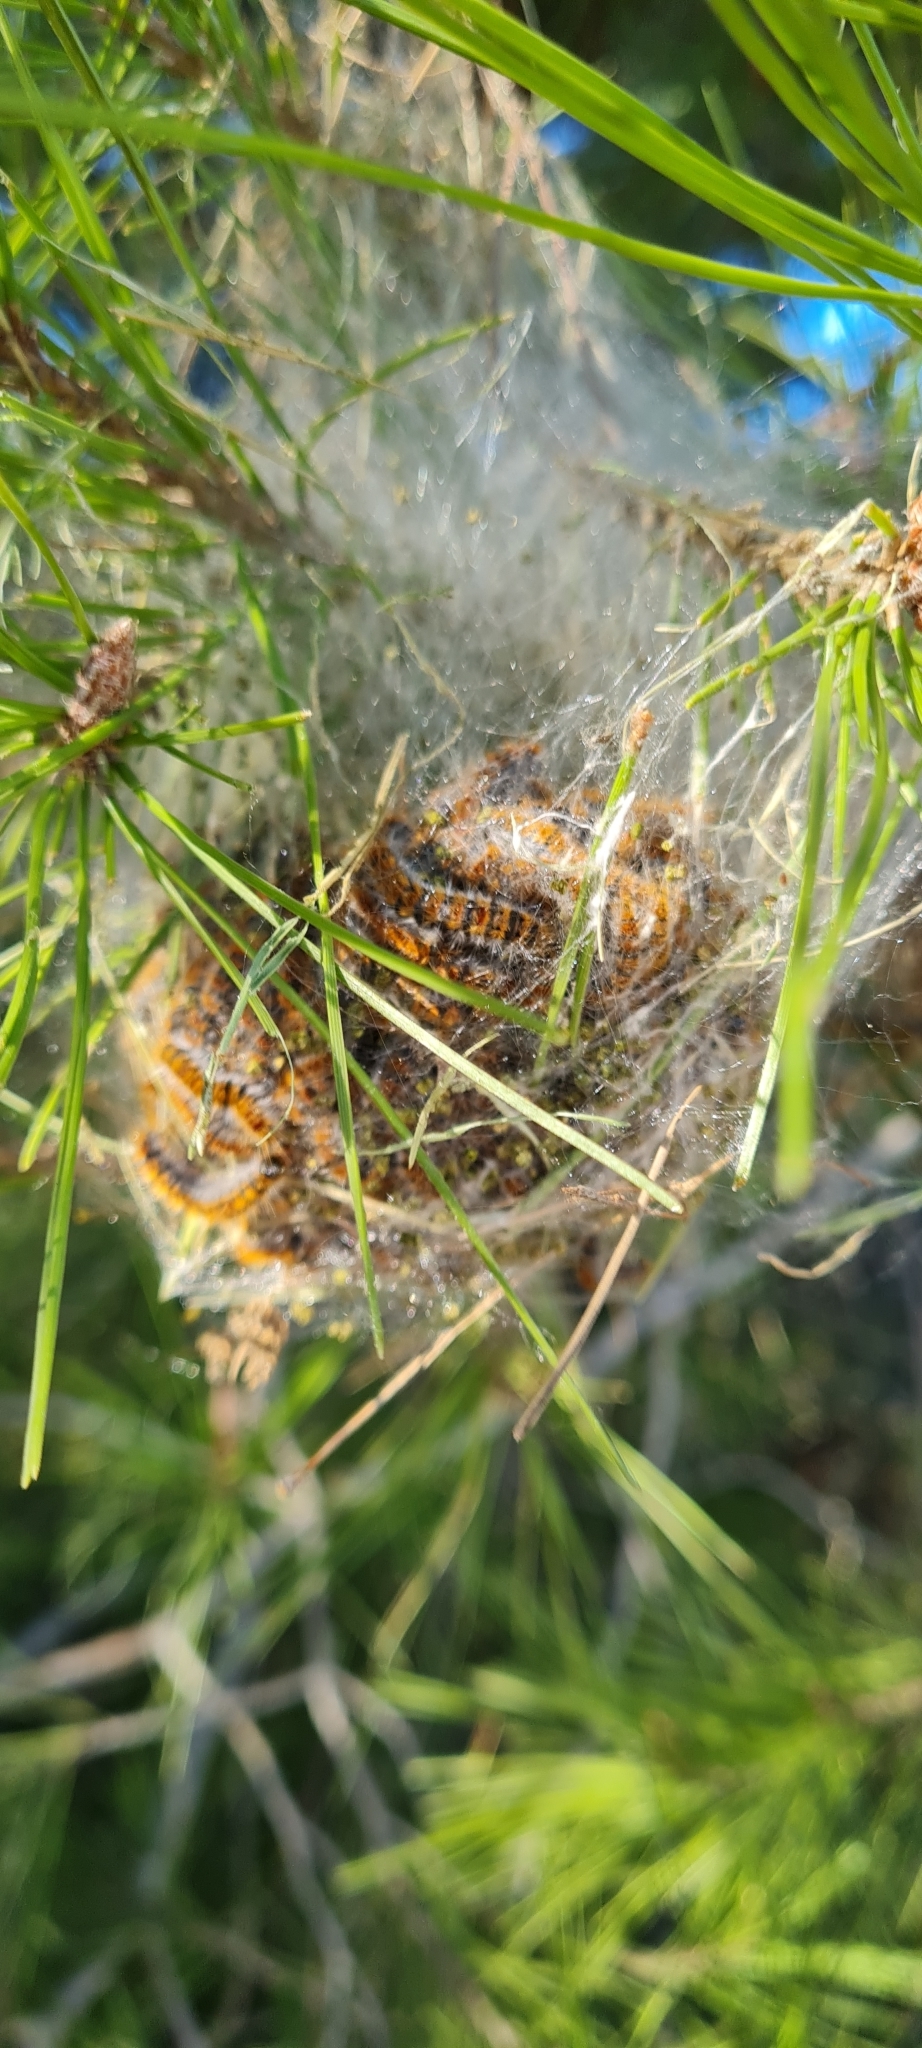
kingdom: Animalia
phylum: Arthropoda
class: Insecta
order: Lepidoptera
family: Notodontidae
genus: Thaumetopoea
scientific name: Thaumetopoea pityocampa
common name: Pine processionary
